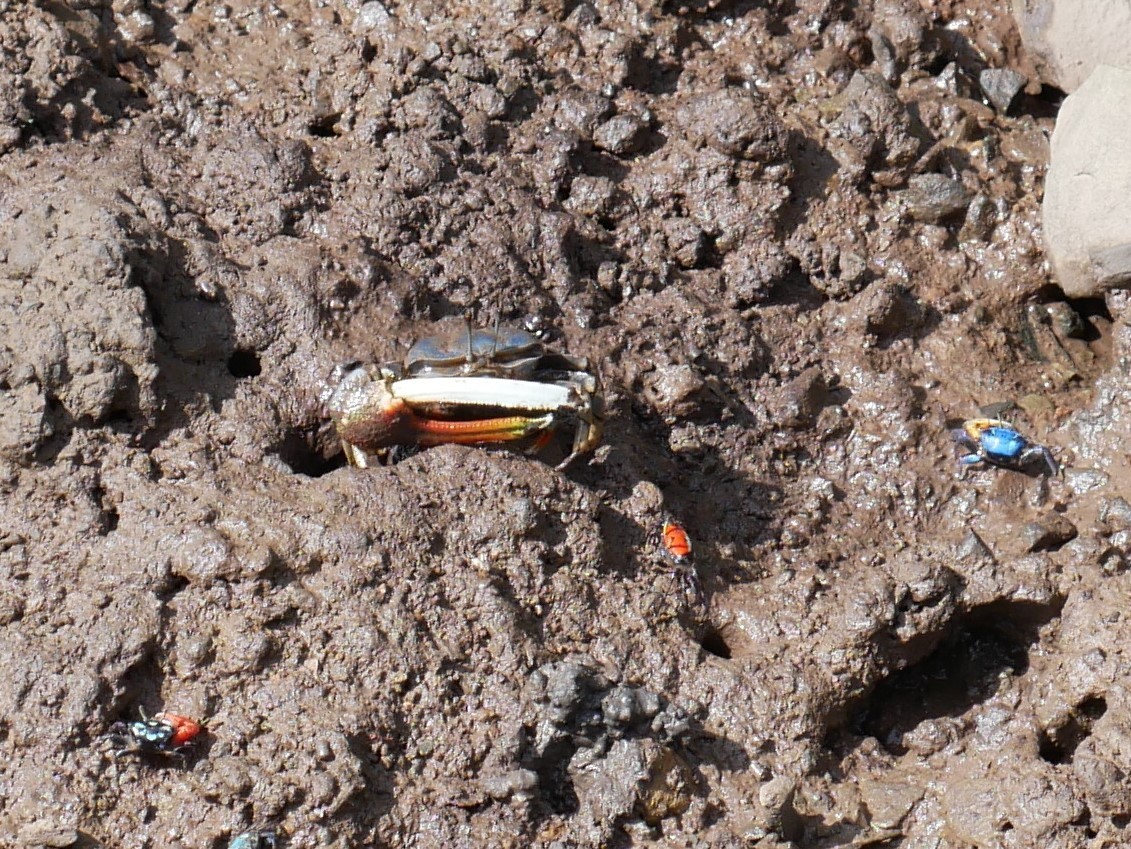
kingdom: Animalia
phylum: Arthropoda
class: Malacostraca
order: Decapoda
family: Ocypodidae
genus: Tubuca
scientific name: Tubuca dussumieri
